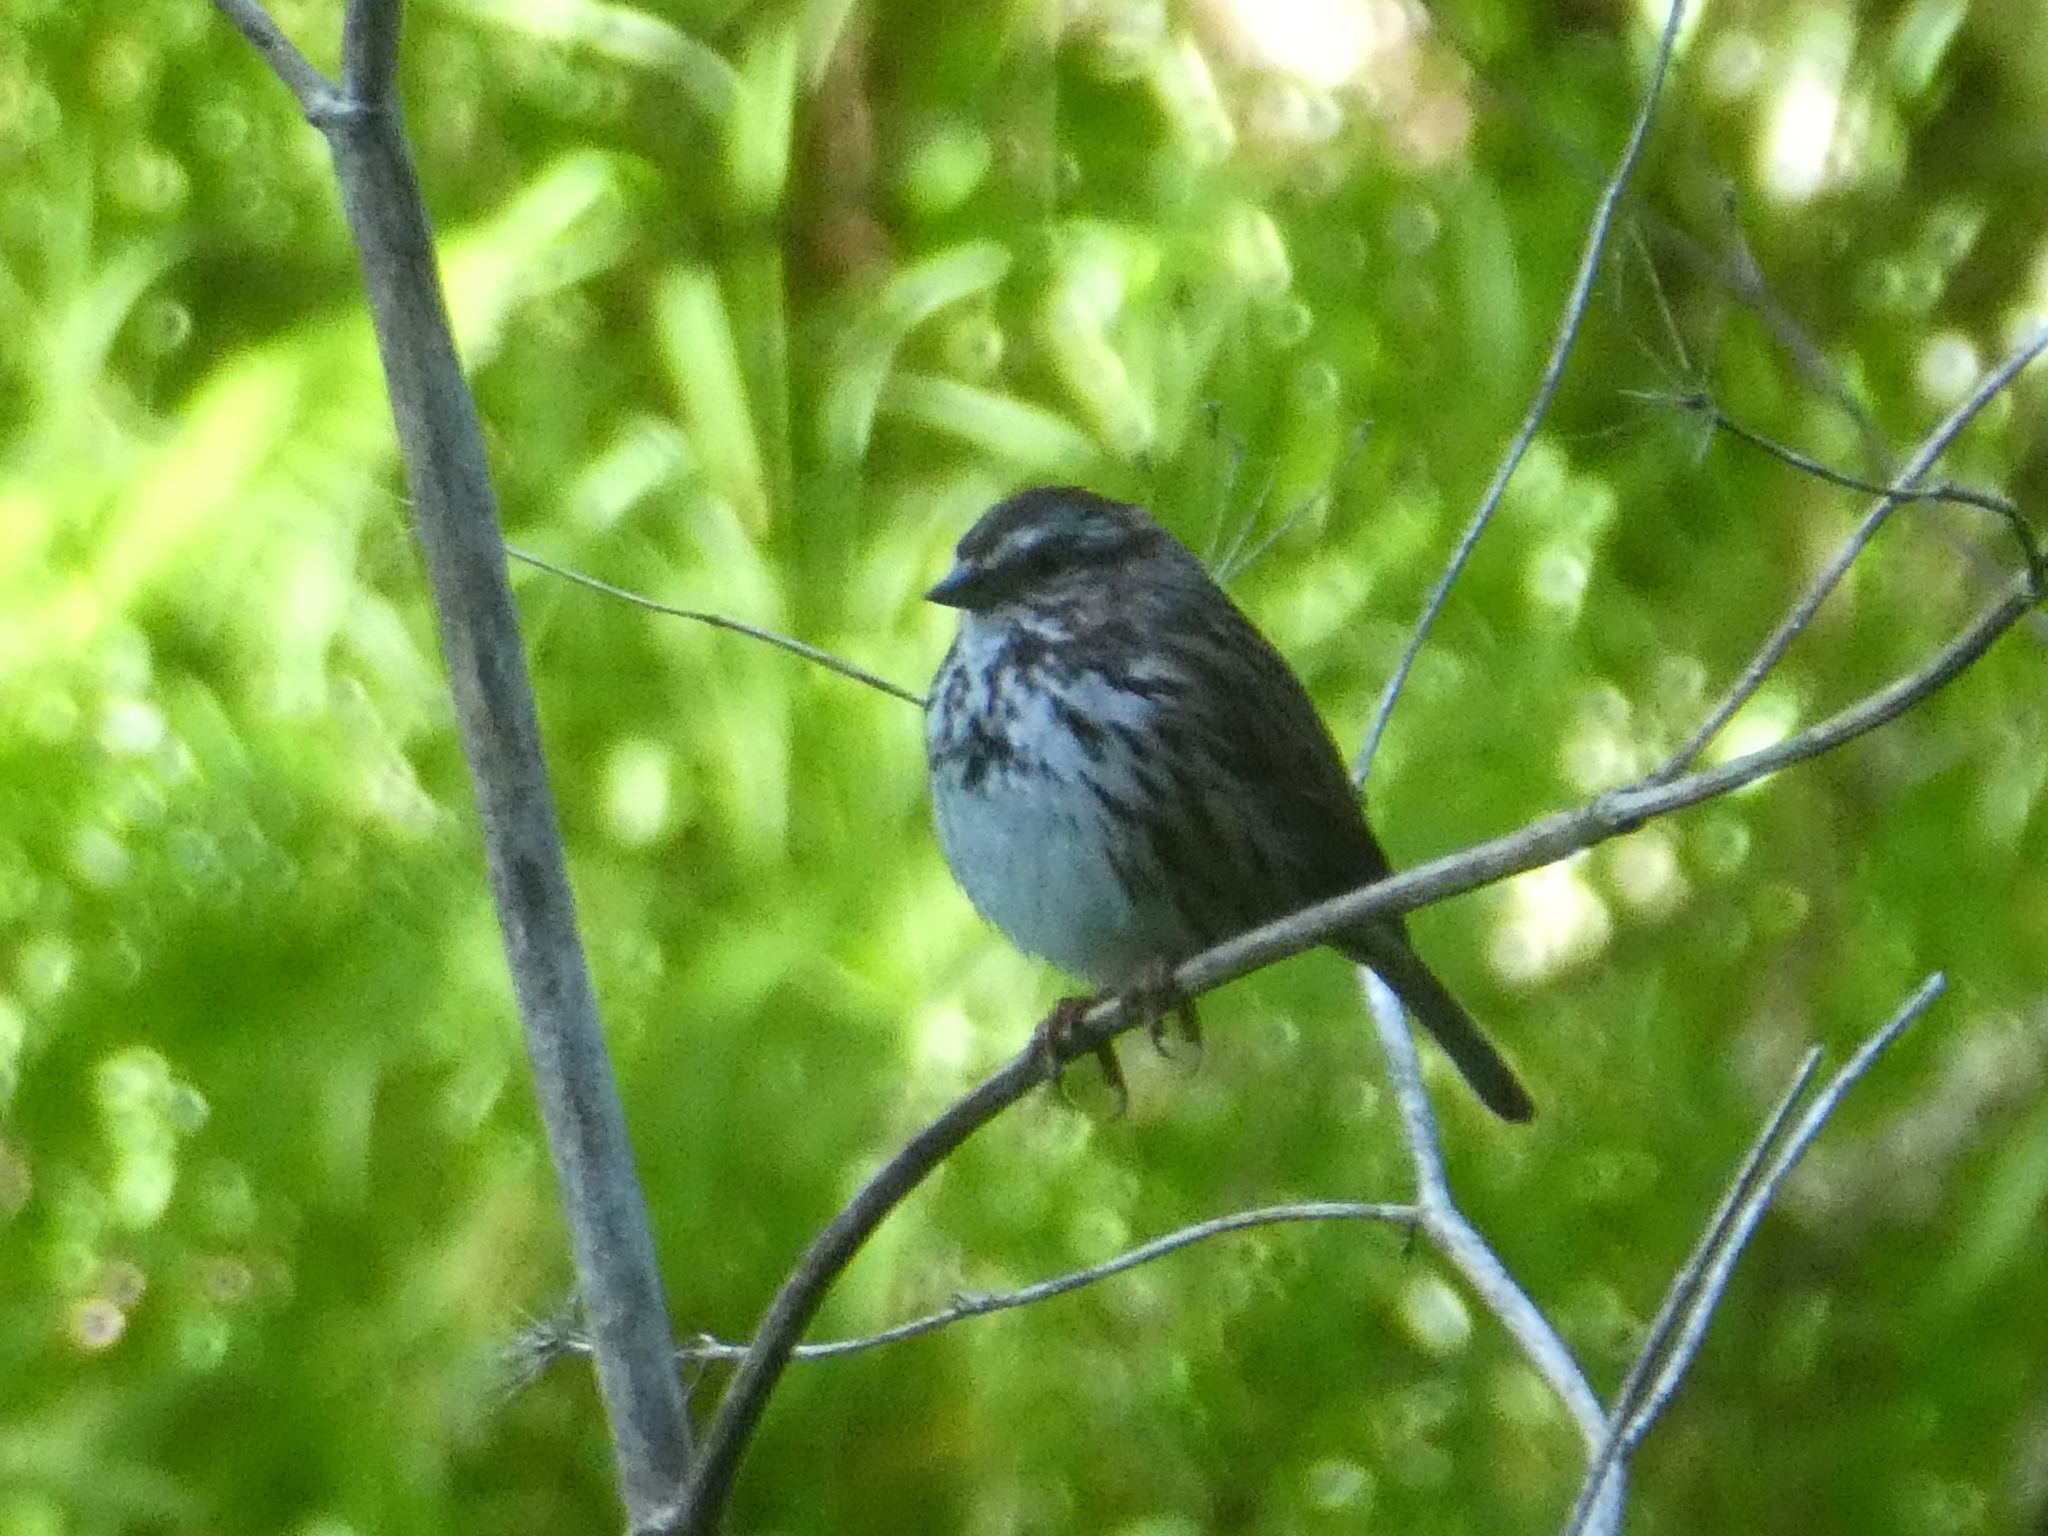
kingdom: Animalia
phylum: Chordata
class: Aves
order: Passeriformes
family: Passerellidae
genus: Melospiza
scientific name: Melospiza melodia
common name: Song sparrow
